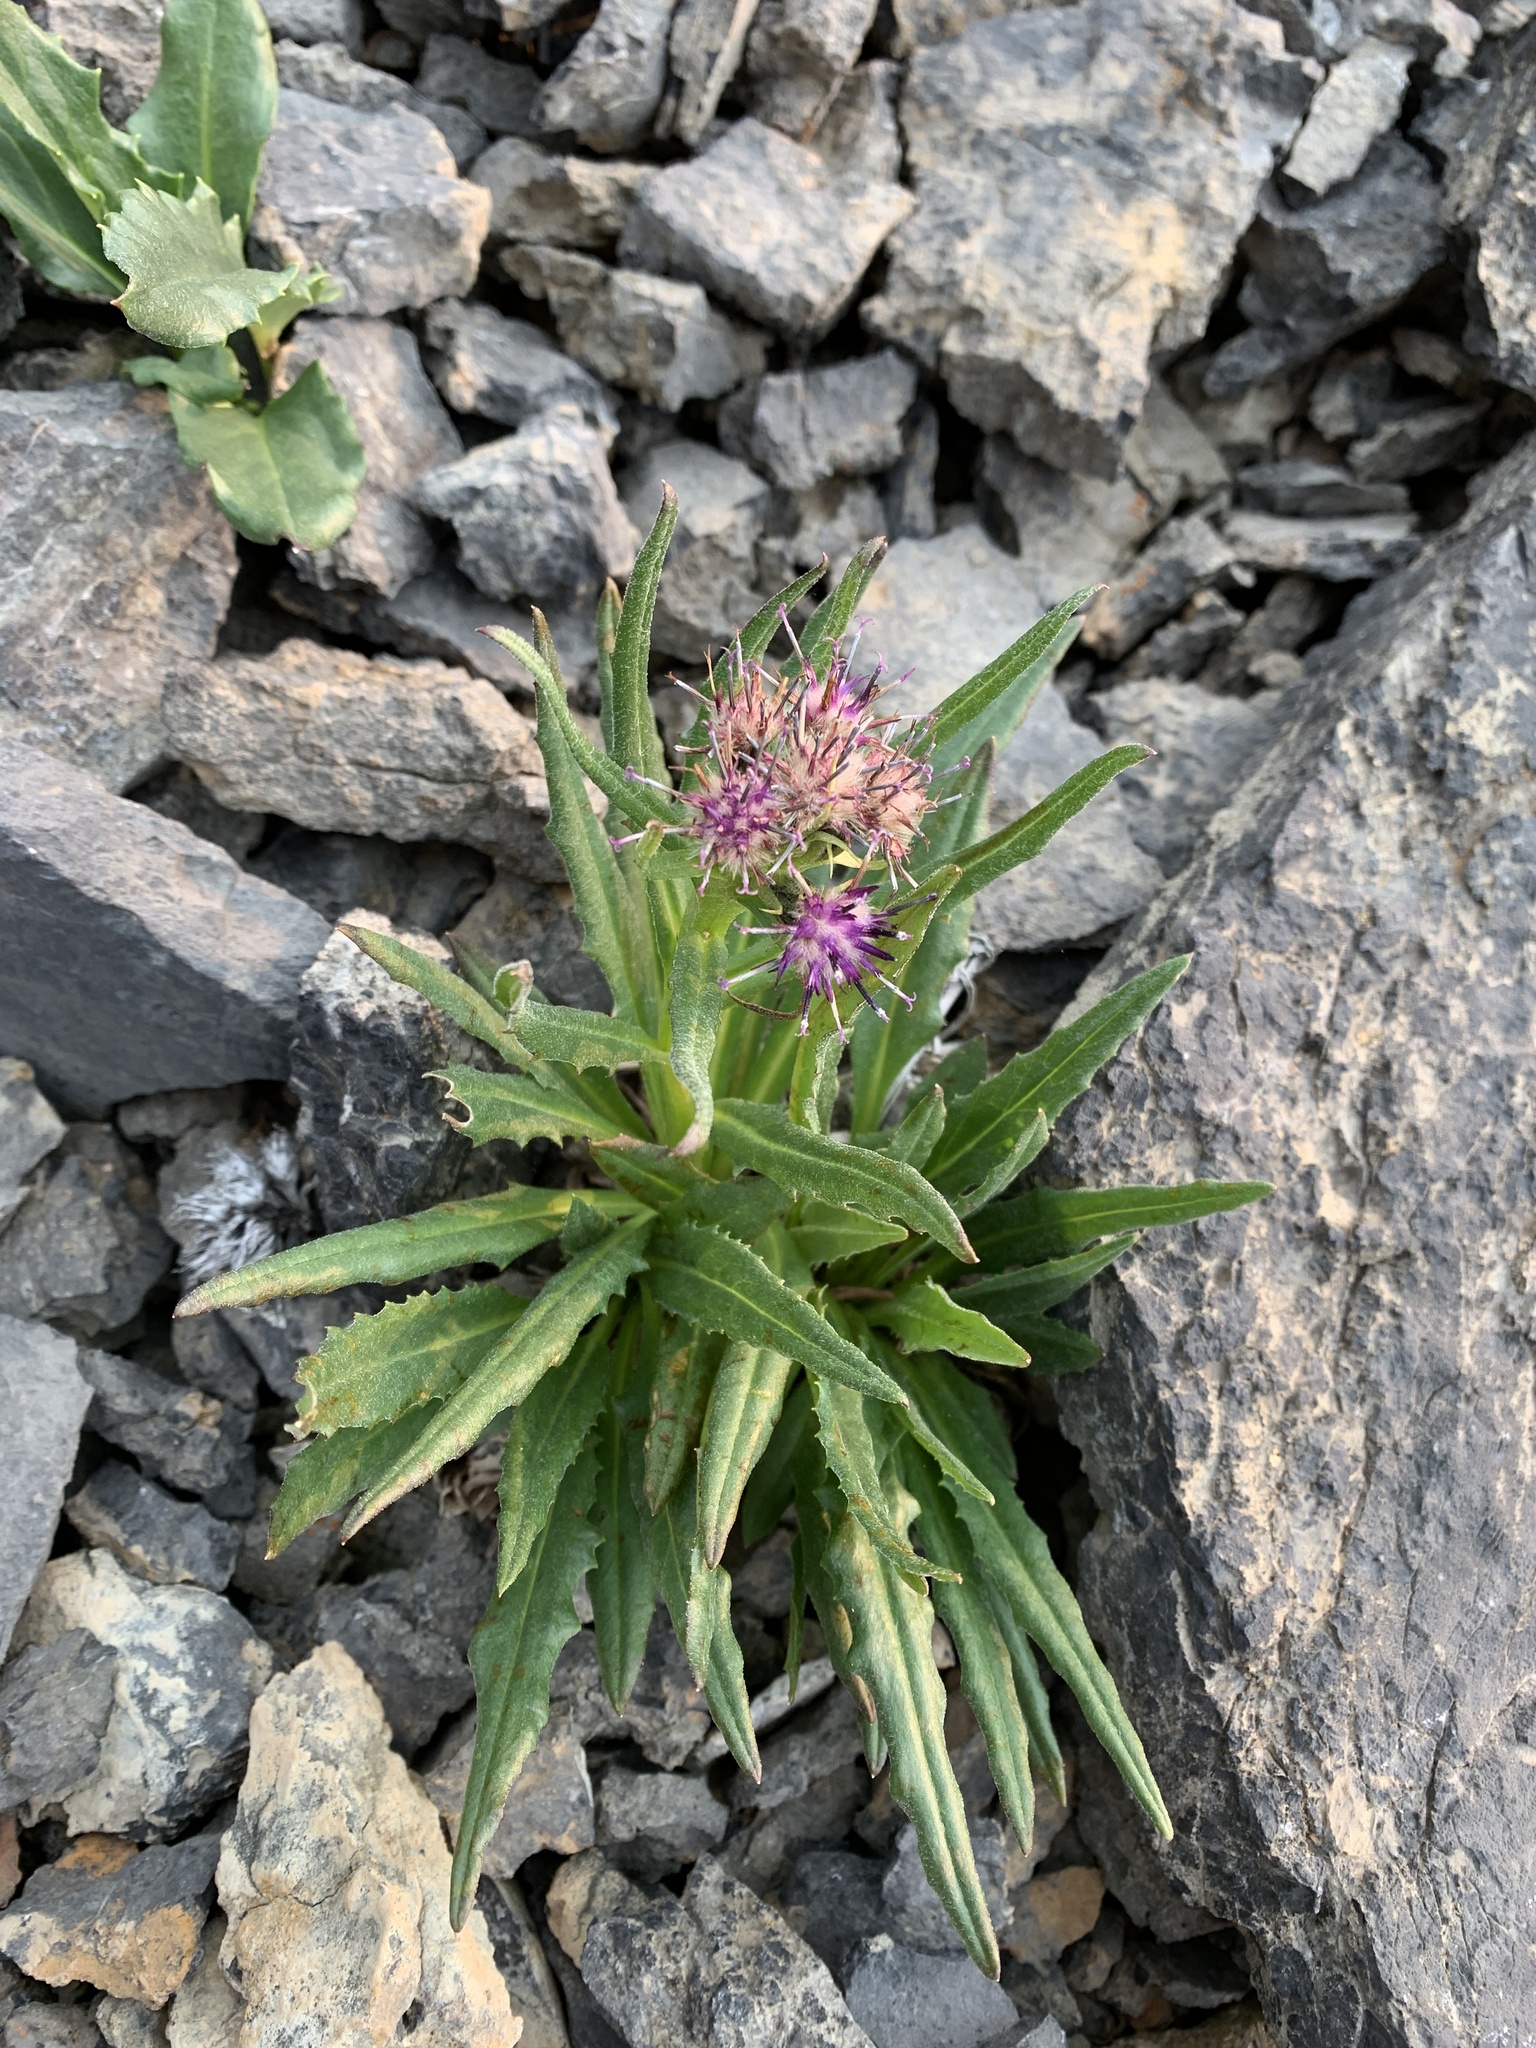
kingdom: Plantae
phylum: Tracheophyta
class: Magnoliopsida
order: Asterales
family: Asteraceae
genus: Saussurea
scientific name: Saussurea nuda
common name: Chaffless saw-wort
